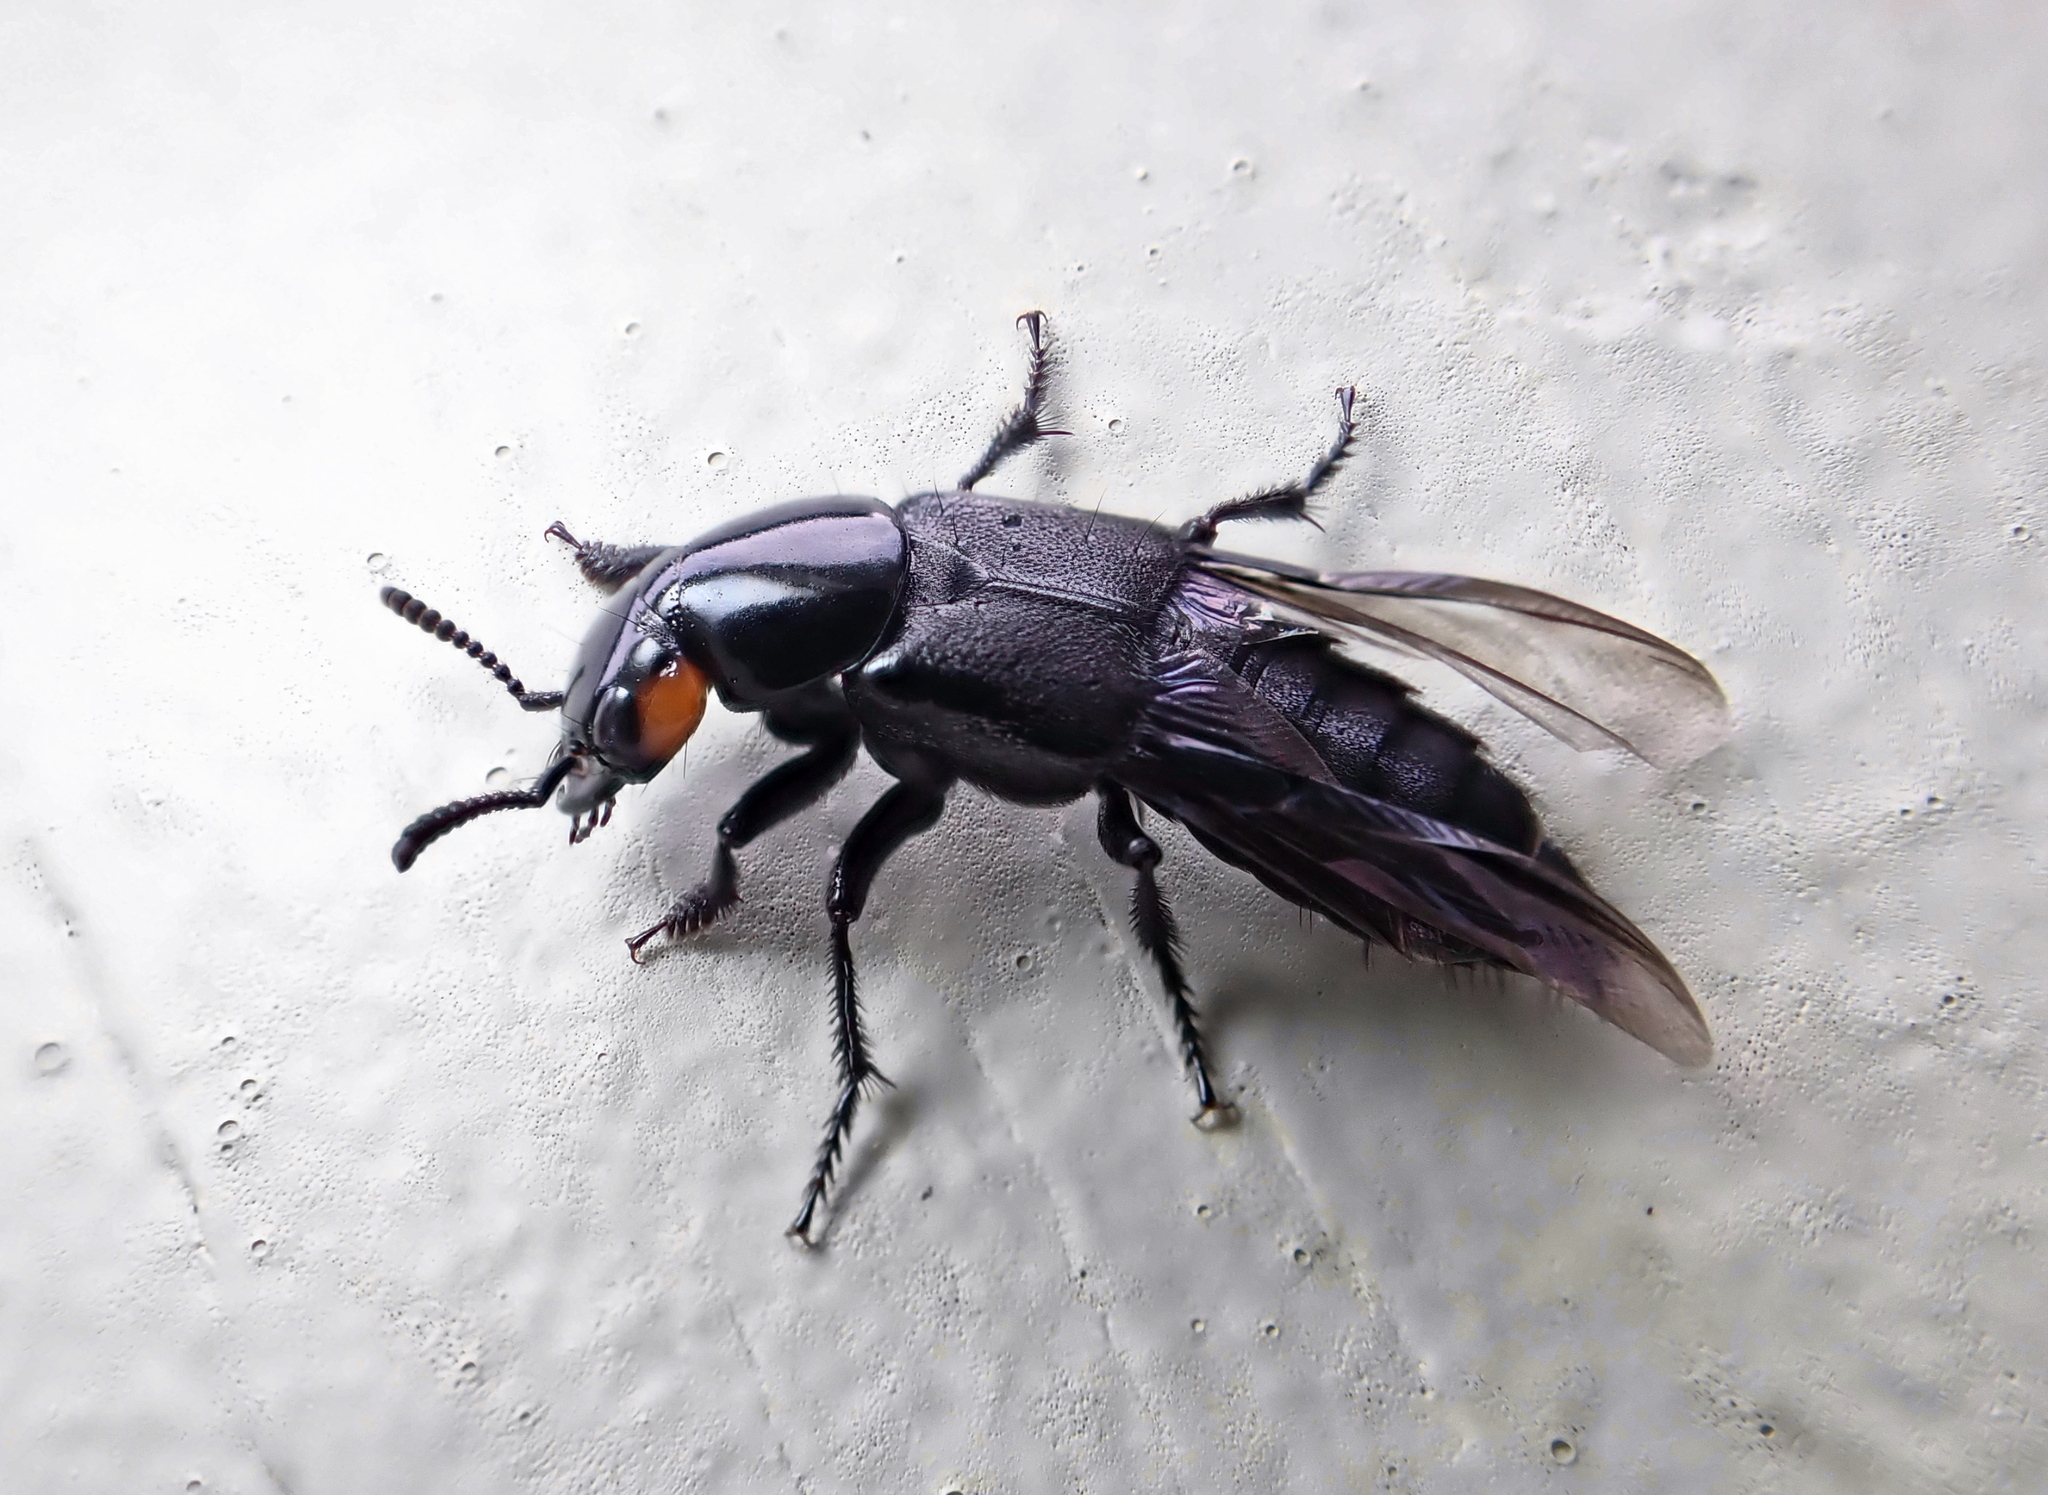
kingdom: Animalia
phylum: Arthropoda
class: Insecta
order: Coleoptera
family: Staphylinidae
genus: Creophilus
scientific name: Creophilus oculatus
